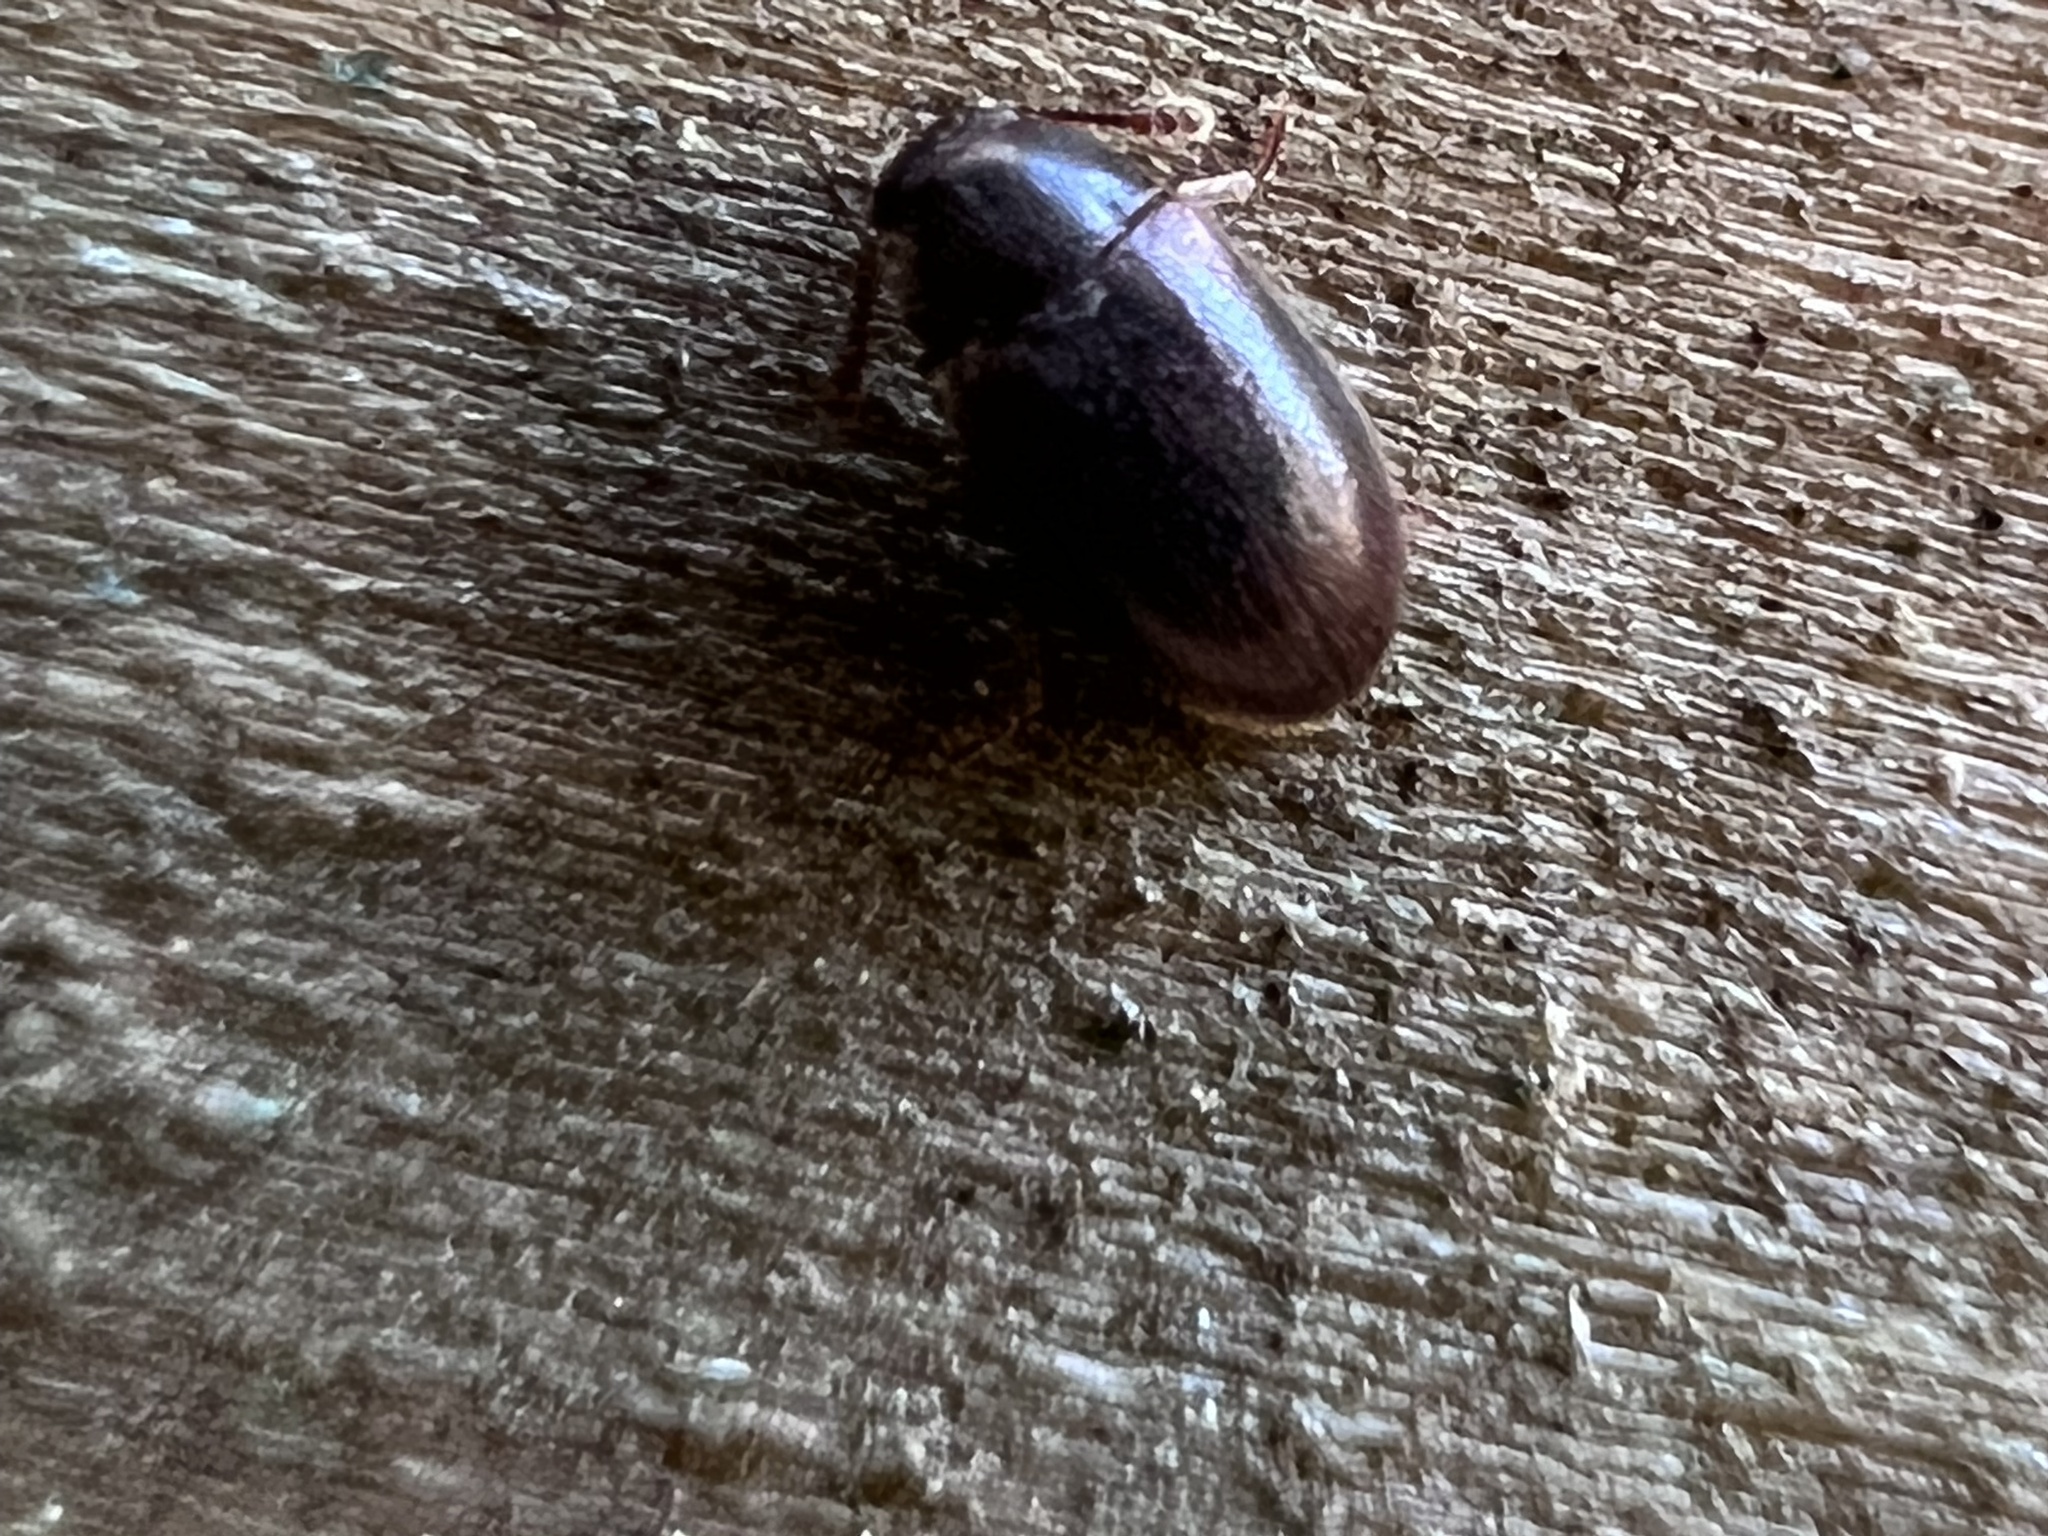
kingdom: Animalia
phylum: Arthropoda
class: Insecta
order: Coleoptera
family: Tetratomidae
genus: Pisenus
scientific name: Pisenus humeralis
